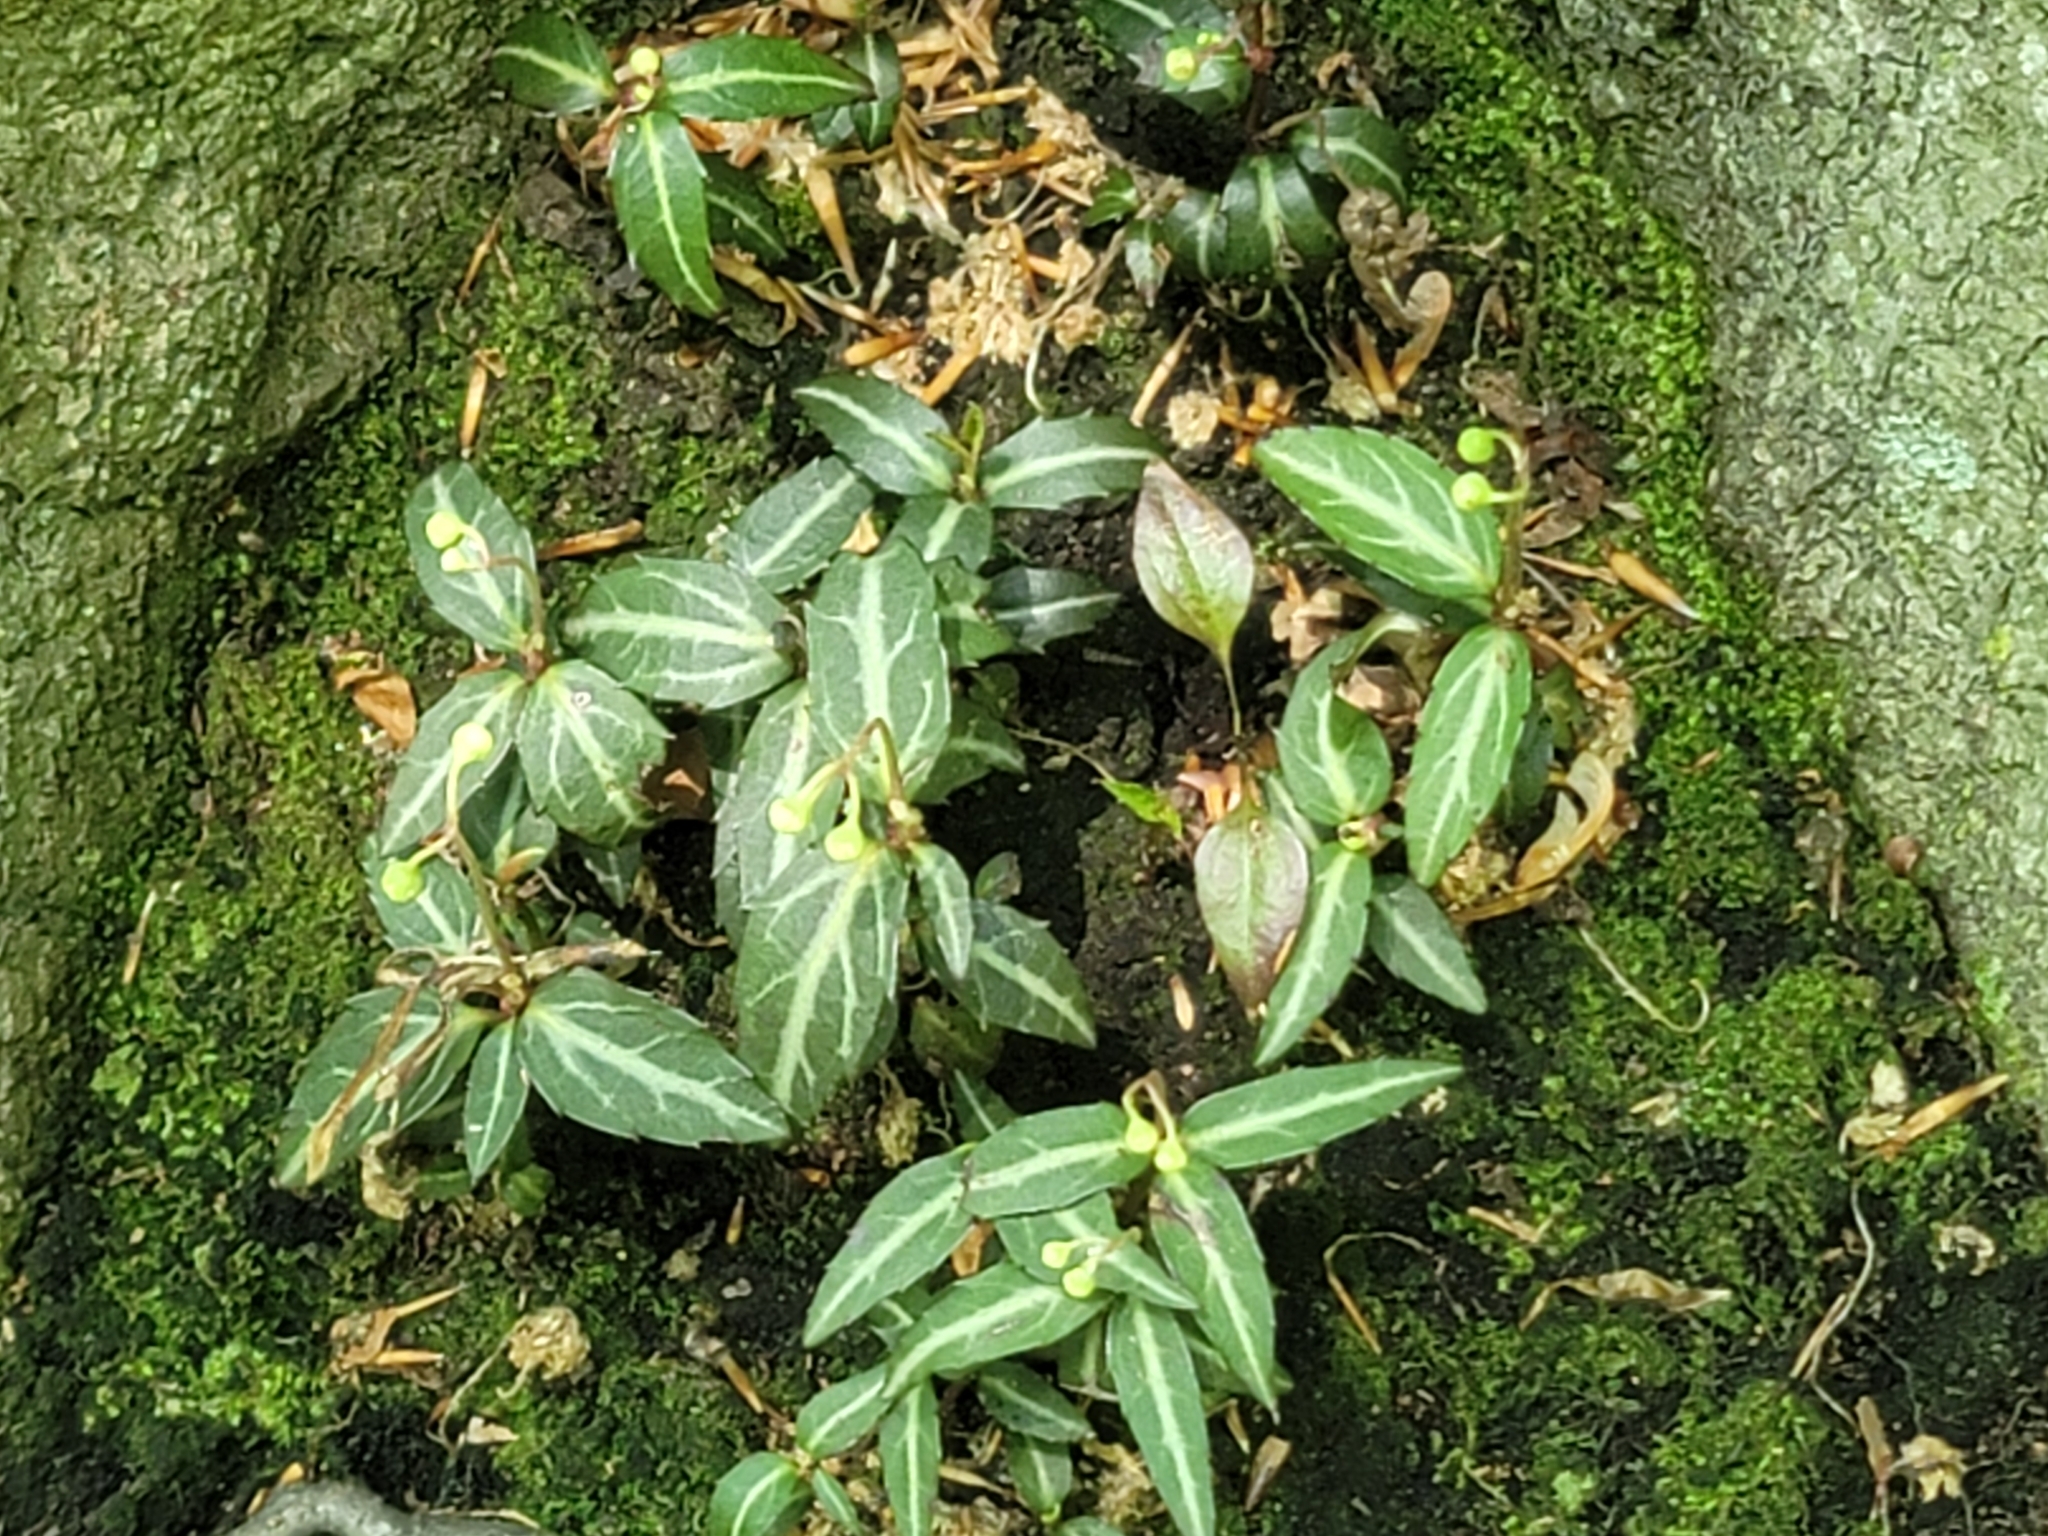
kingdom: Plantae
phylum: Tracheophyta
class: Magnoliopsida
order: Ericales
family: Ericaceae
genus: Chimaphila
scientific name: Chimaphila maculata
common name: Spotted pipsissewa
